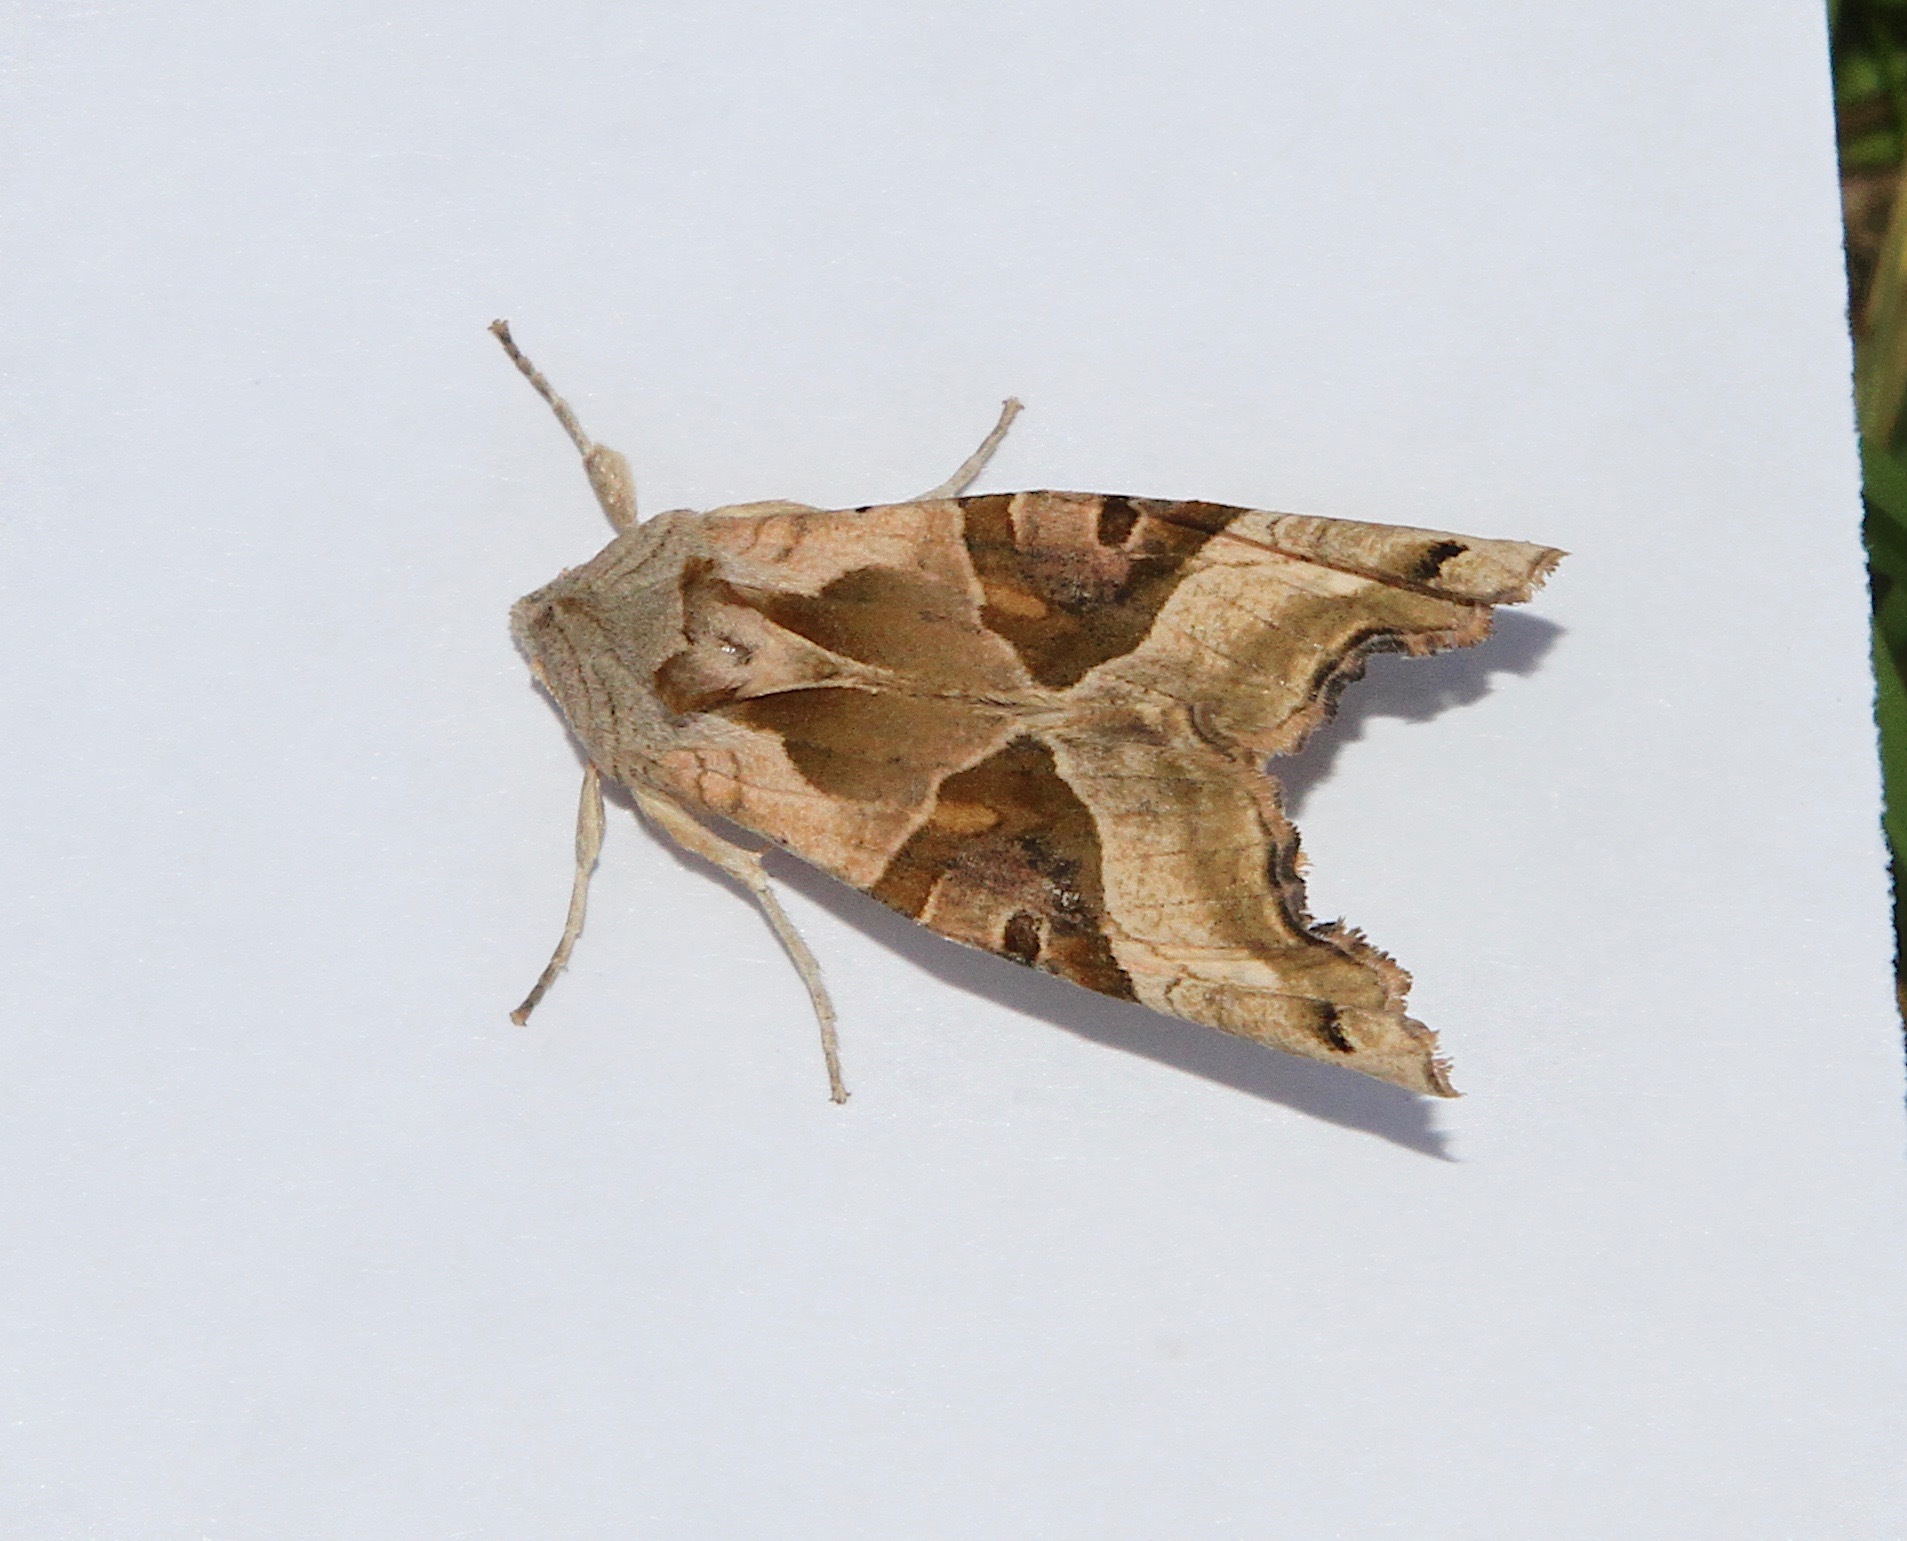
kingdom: Animalia
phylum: Arthropoda
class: Insecta
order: Lepidoptera
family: Noctuidae
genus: Phlogophora
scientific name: Phlogophora meticulosa
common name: Angle shades
